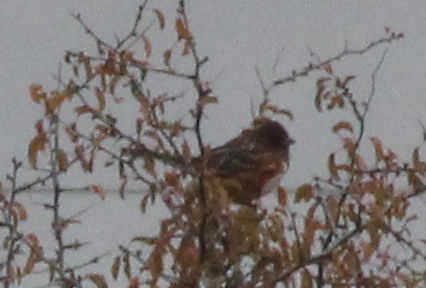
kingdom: Animalia
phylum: Chordata
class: Aves
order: Passeriformes
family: Passerellidae
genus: Pipilo
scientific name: Pipilo maculatus
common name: Spotted towhee
